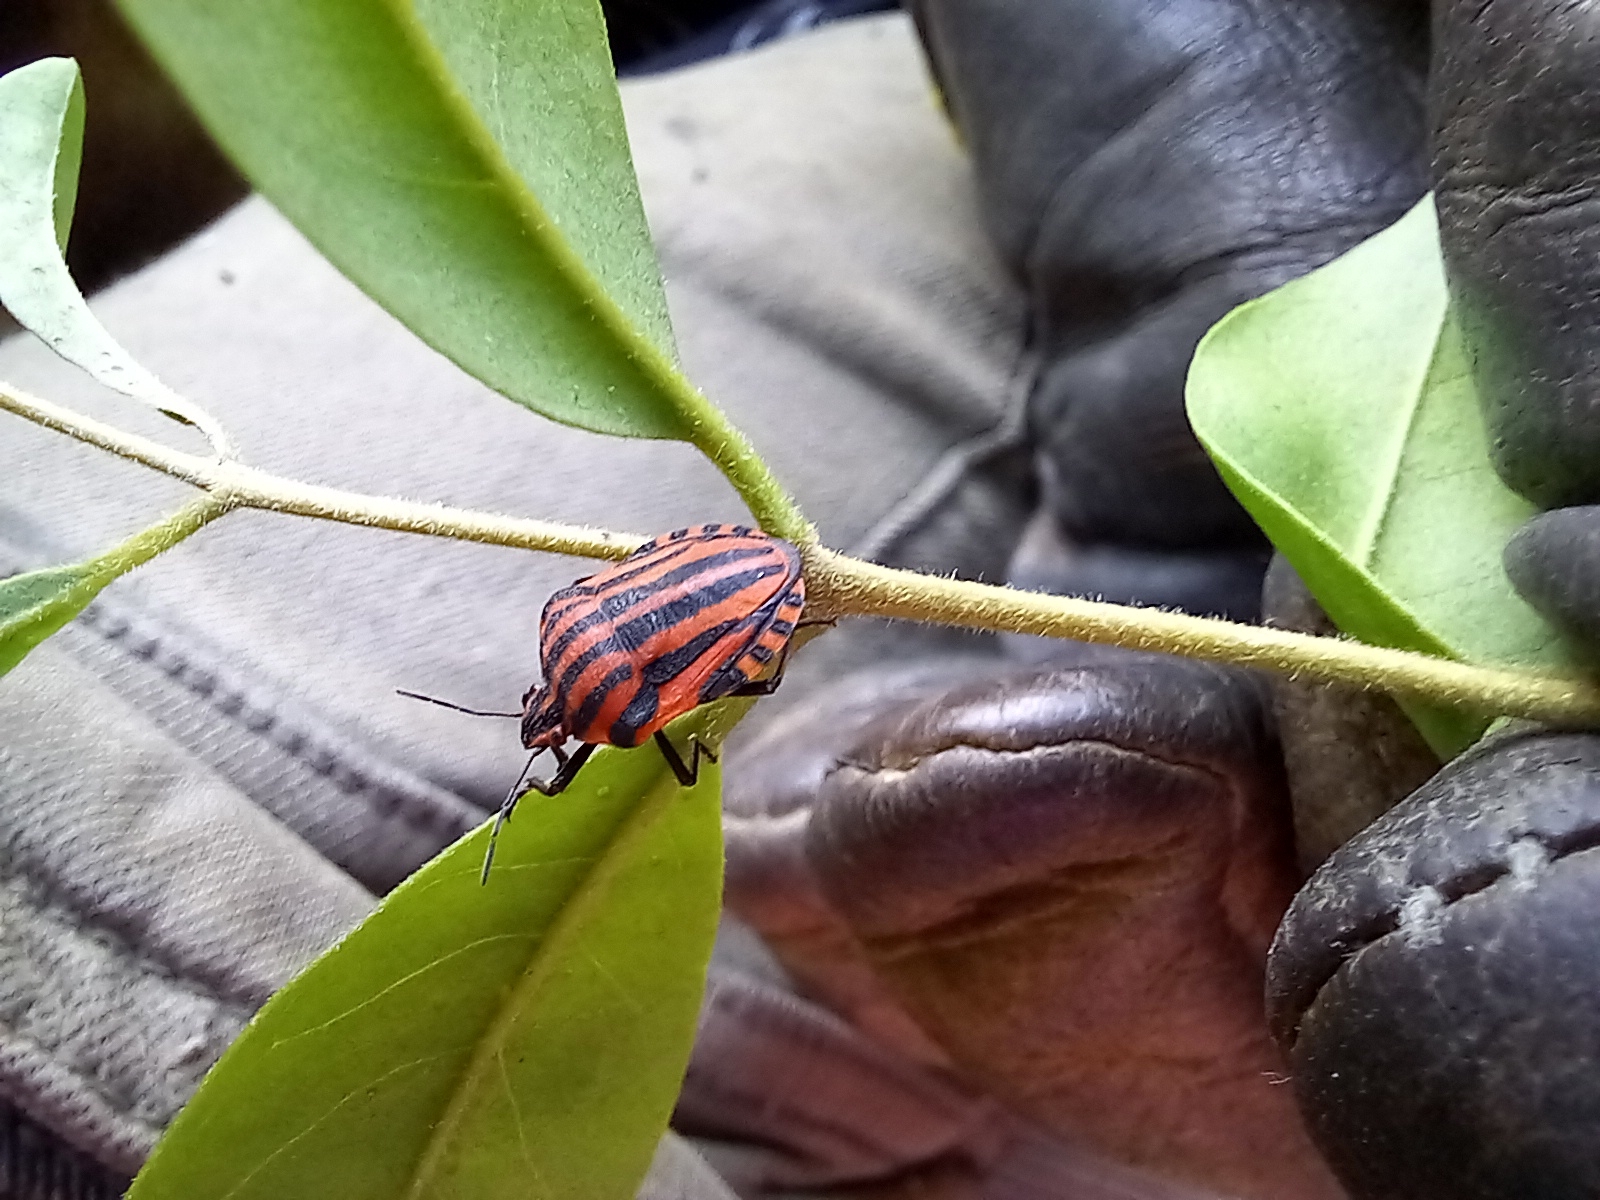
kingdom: Animalia
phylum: Arthropoda
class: Insecta
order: Hemiptera
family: Pentatomidae
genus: Graphosoma
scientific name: Graphosoma italicum
